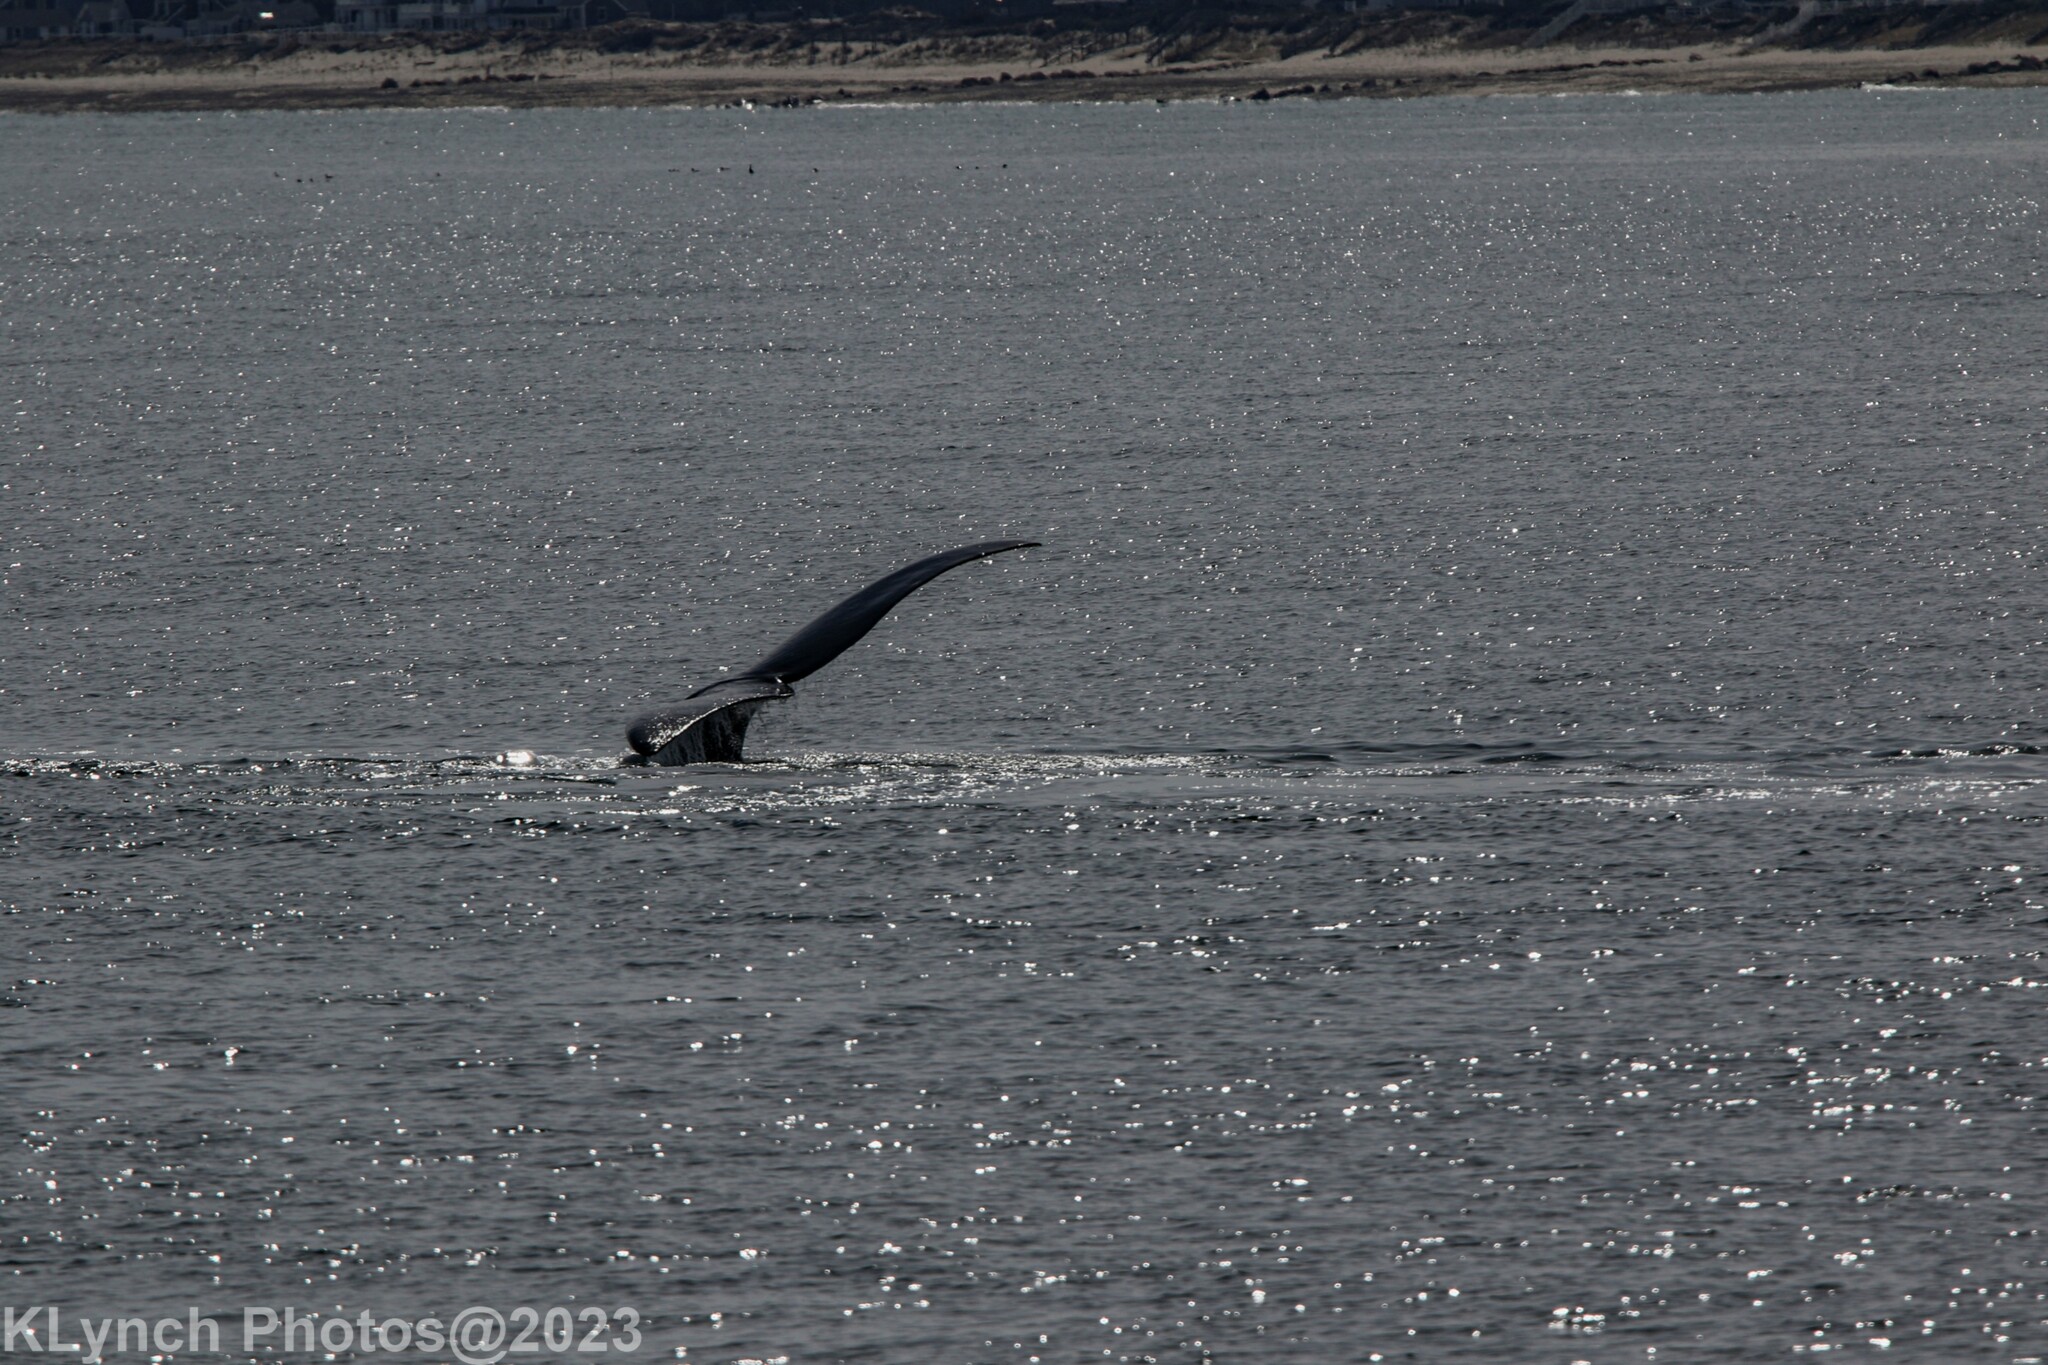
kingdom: Animalia
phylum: Chordata
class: Mammalia
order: Cetacea
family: Balaenidae
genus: Eubalaena
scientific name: Eubalaena glacialis
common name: North atlantic right whale
